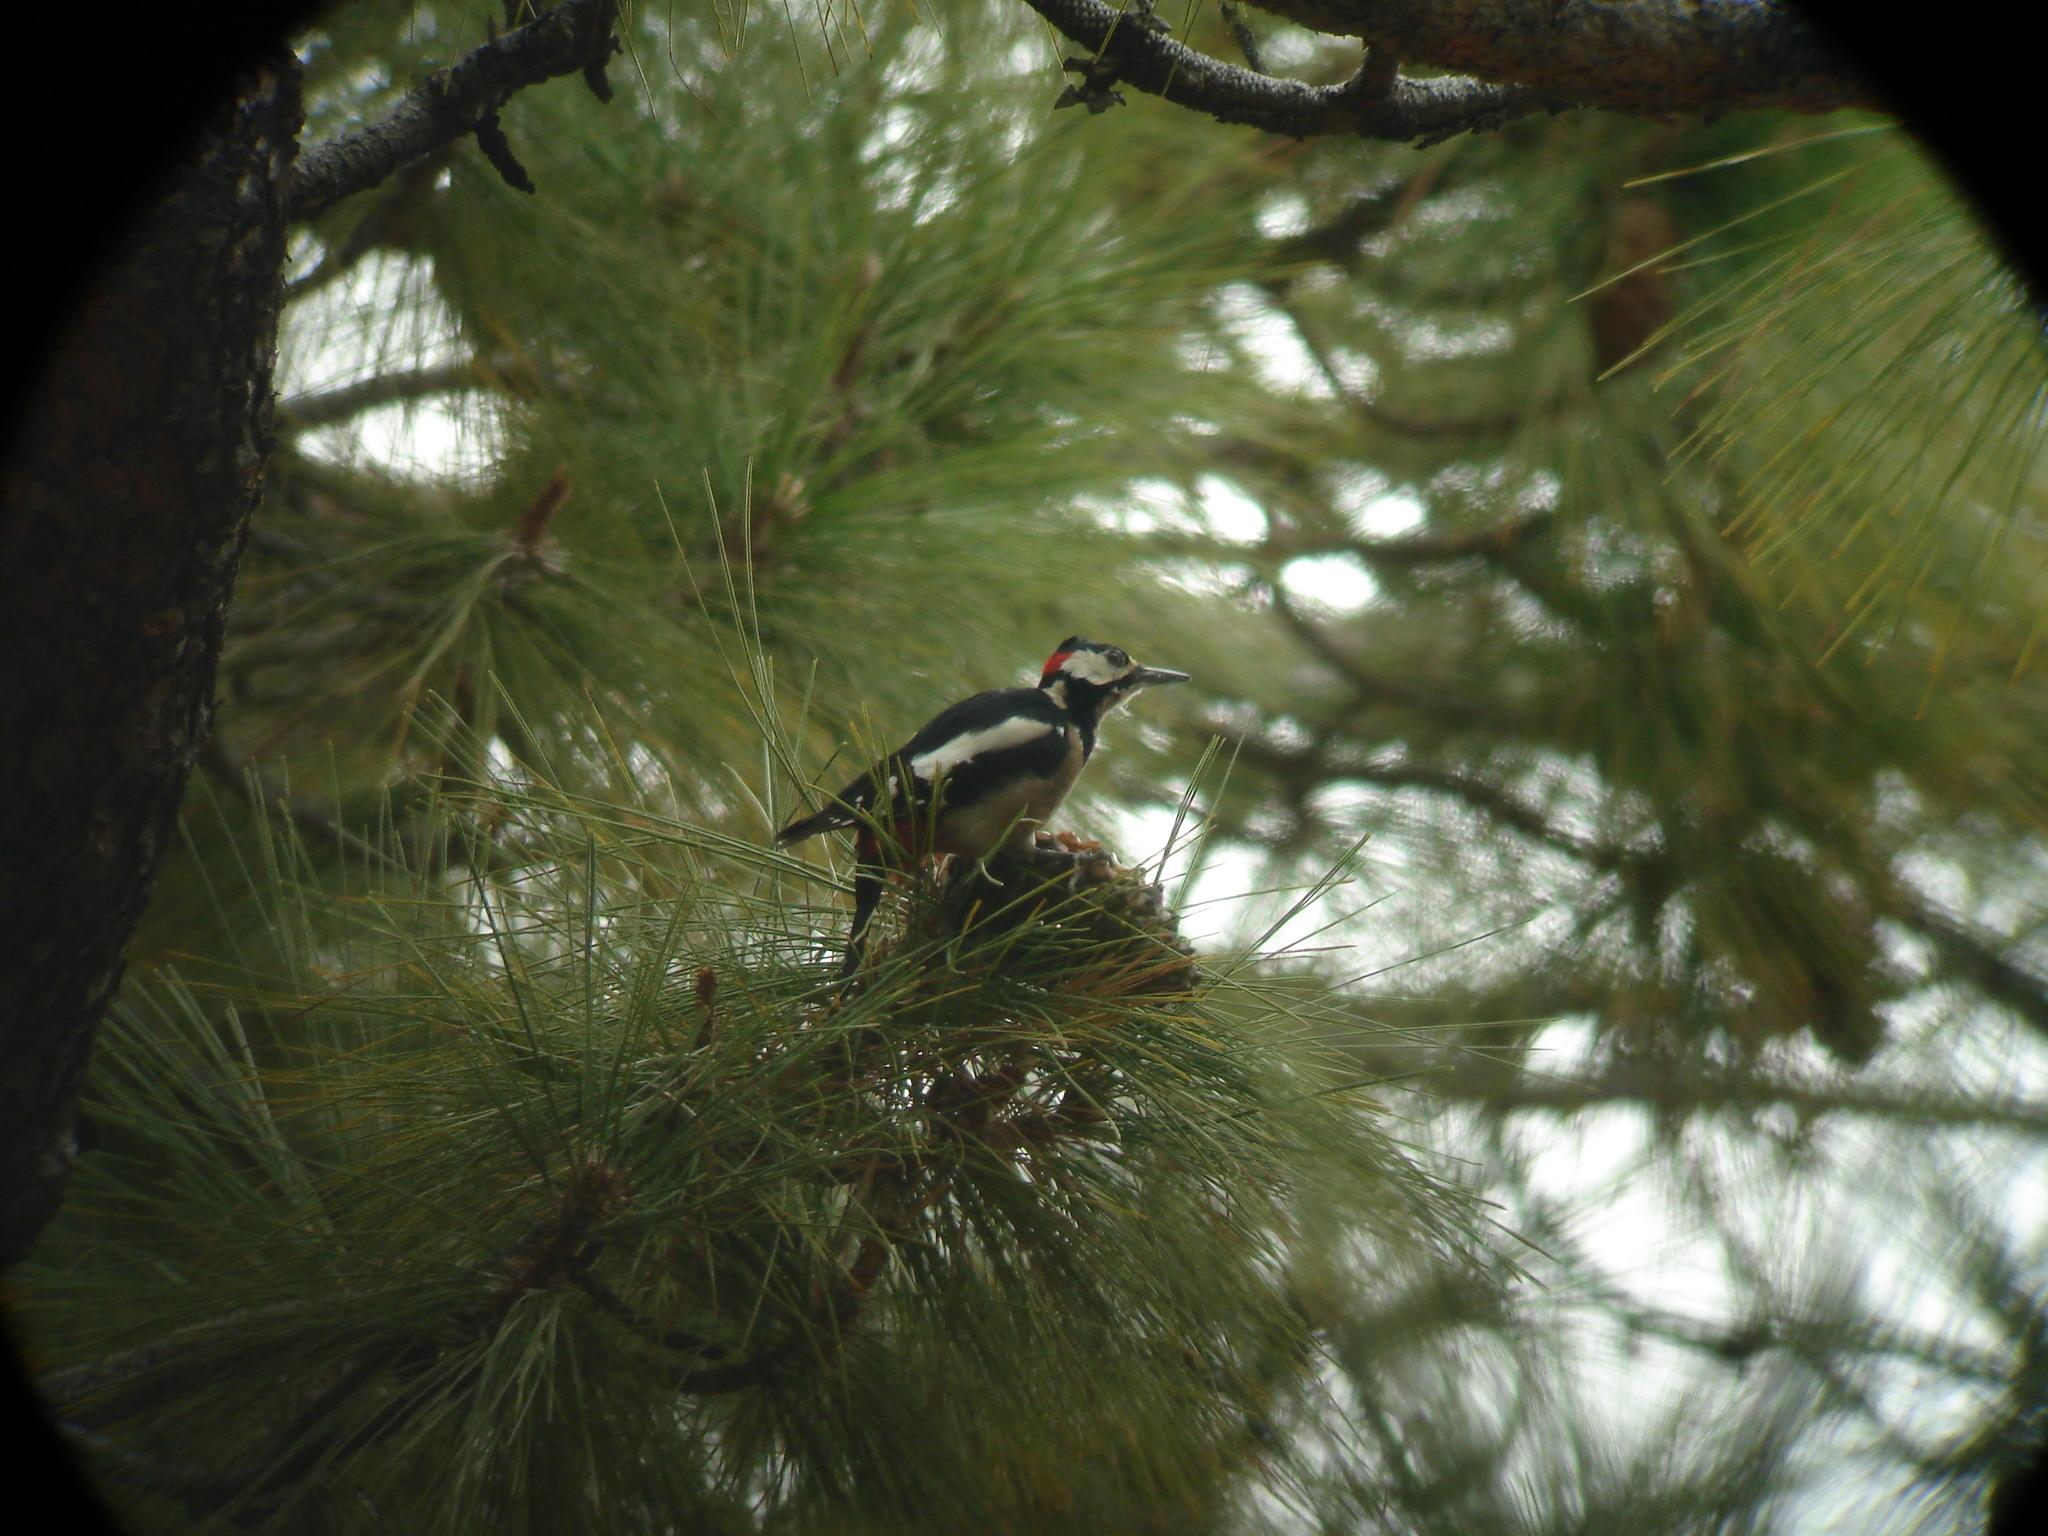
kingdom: Animalia
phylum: Chordata
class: Aves
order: Piciformes
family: Picidae
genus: Dendrocopos
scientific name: Dendrocopos major
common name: Great spotted woodpecker
